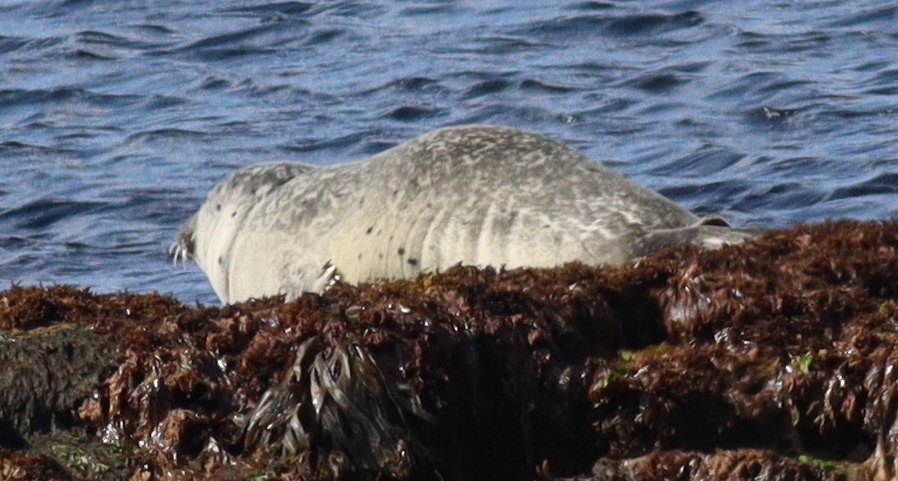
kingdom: Animalia
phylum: Chordata
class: Mammalia
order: Carnivora
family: Phocidae
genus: Phoca
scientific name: Phoca vitulina
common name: Harbor seal
